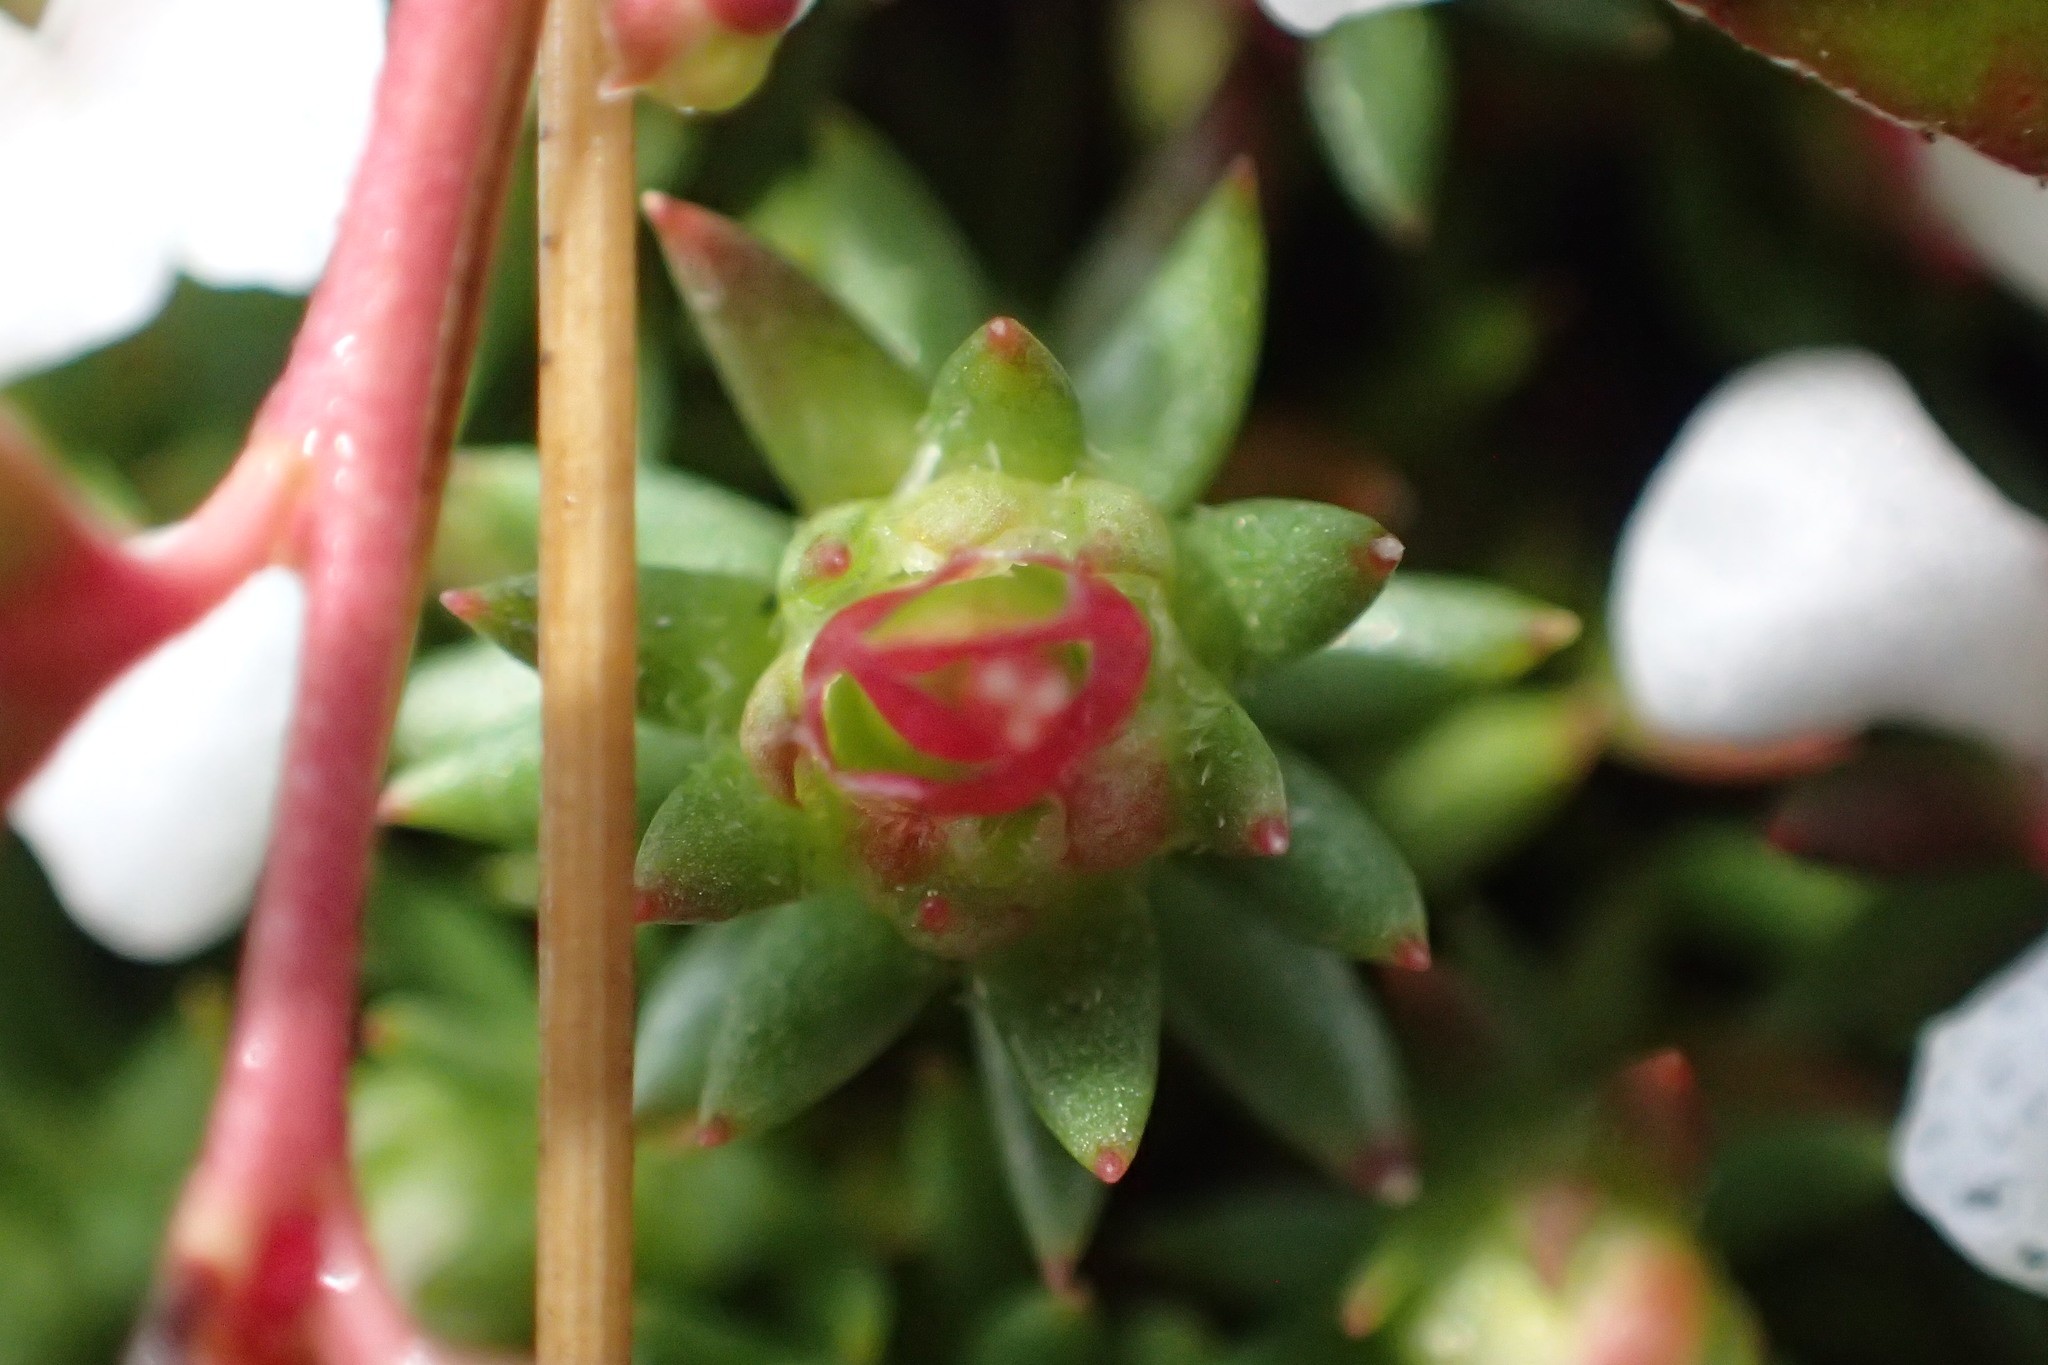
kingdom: Plantae
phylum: Tracheophyta
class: Magnoliopsida
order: Ericales
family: Diapensiaceae
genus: Pyxidanthera
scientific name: Pyxidanthera barbulata
